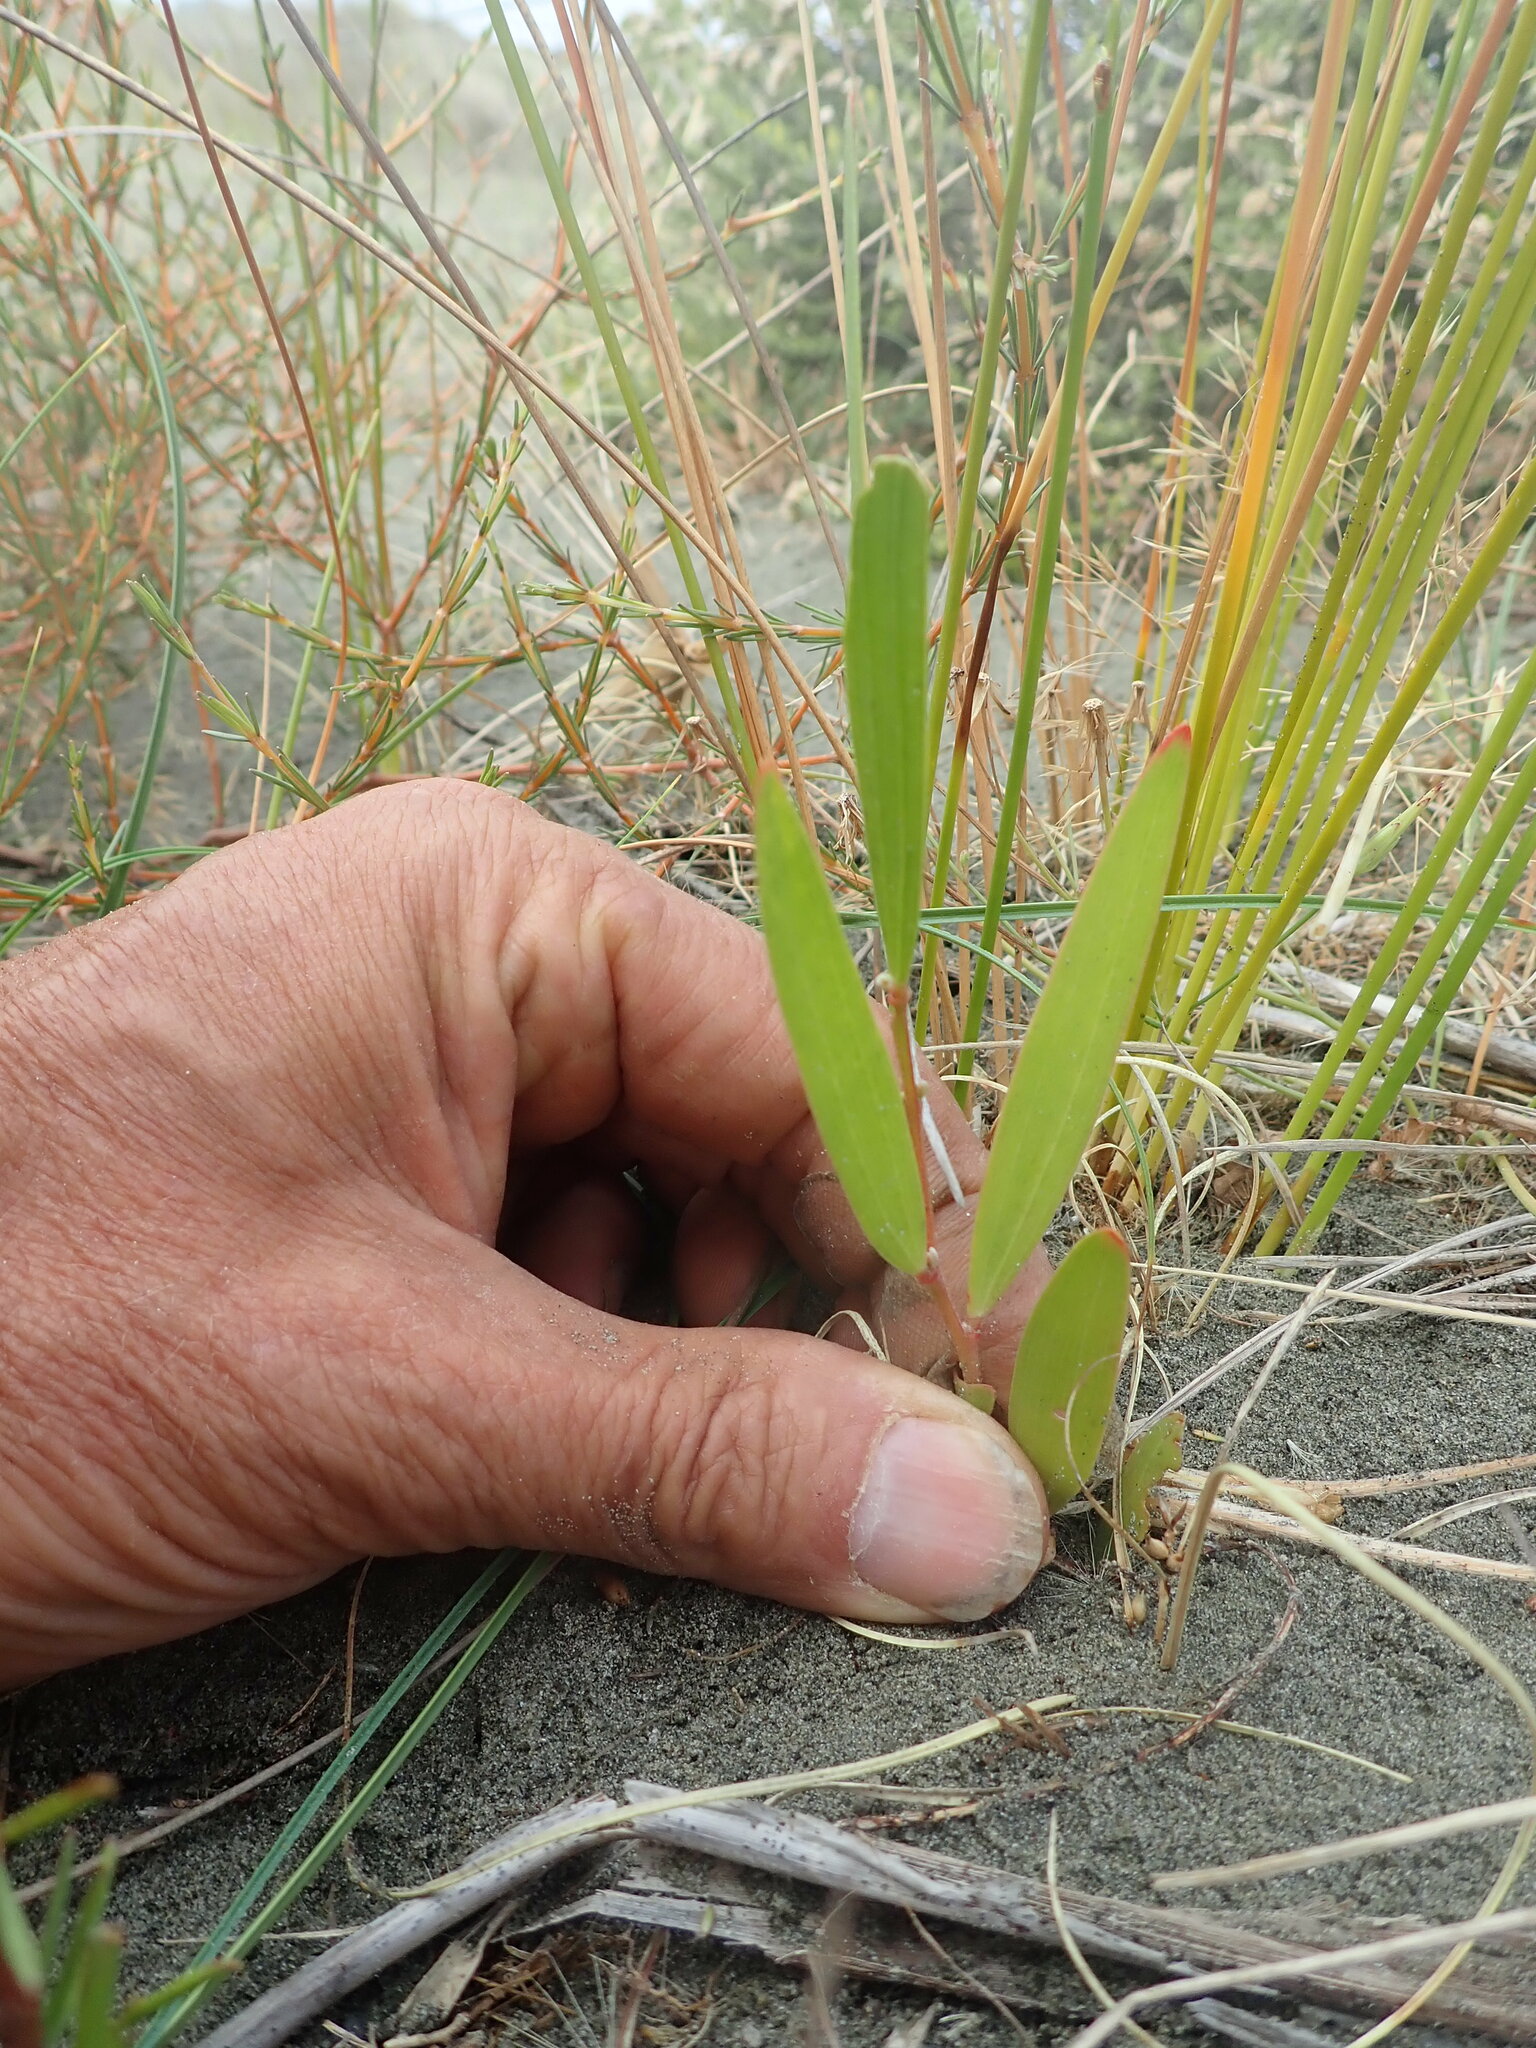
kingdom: Plantae
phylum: Tracheophyta
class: Magnoliopsida
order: Fabales
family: Fabaceae
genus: Acacia
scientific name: Acacia longifolia
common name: Sydney golden wattle
